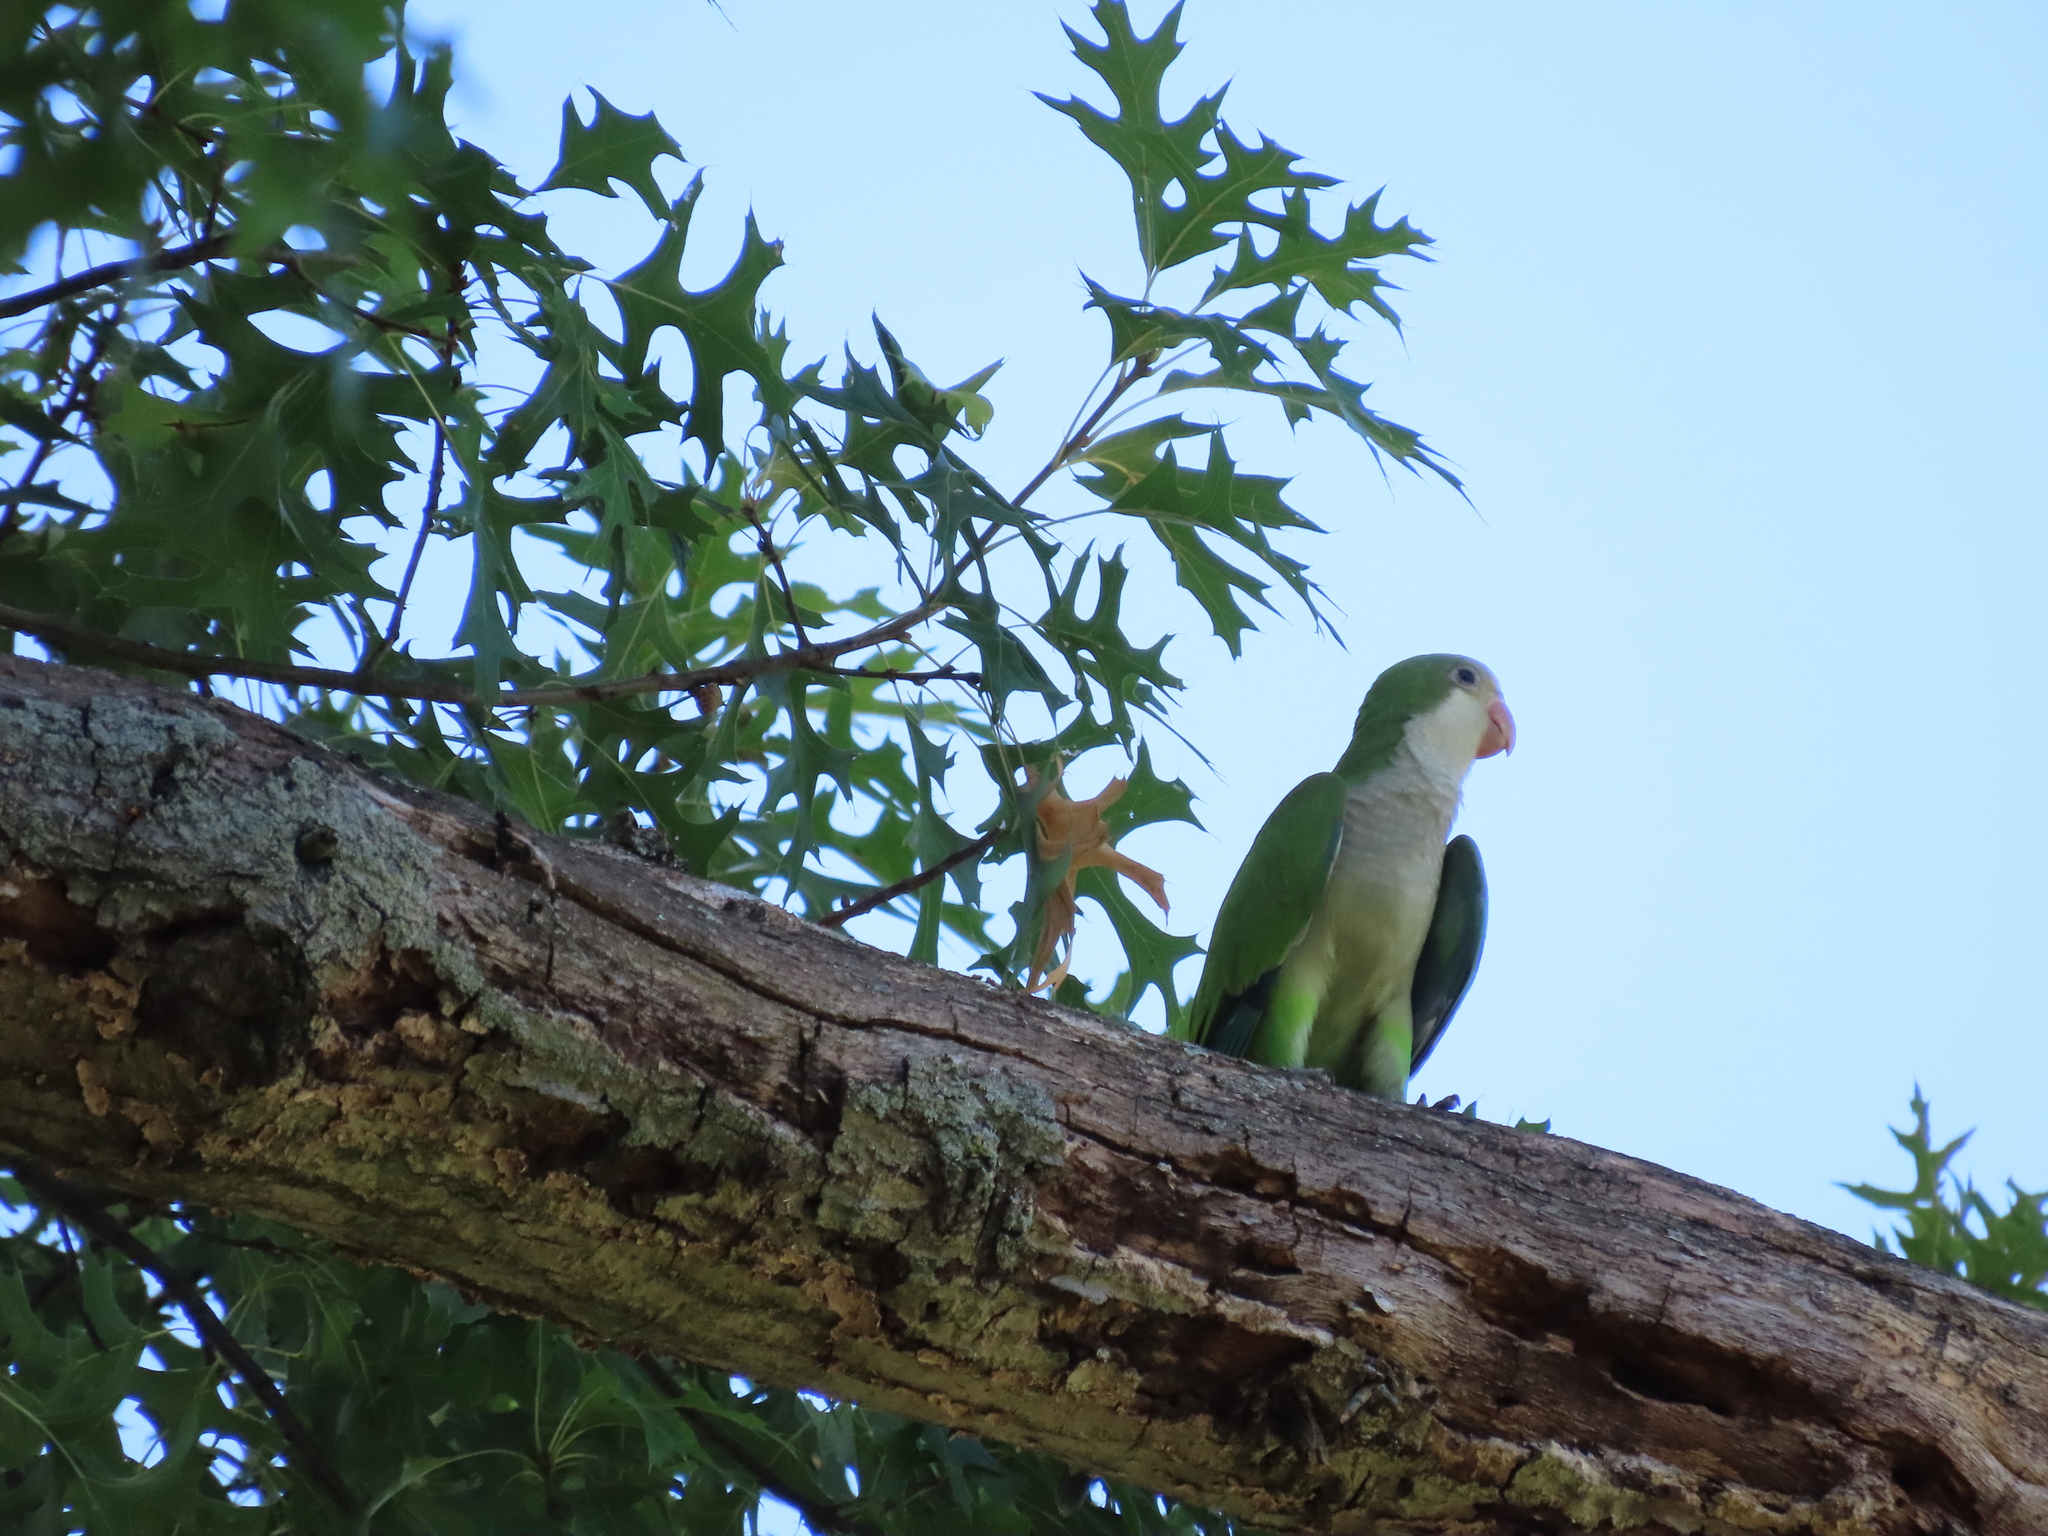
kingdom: Animalia
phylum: Chordata
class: Aves
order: Psittaciformes
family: Psittacidae
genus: Myiopsitta
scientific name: Myiopsitta monachus
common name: Monk parakeet
